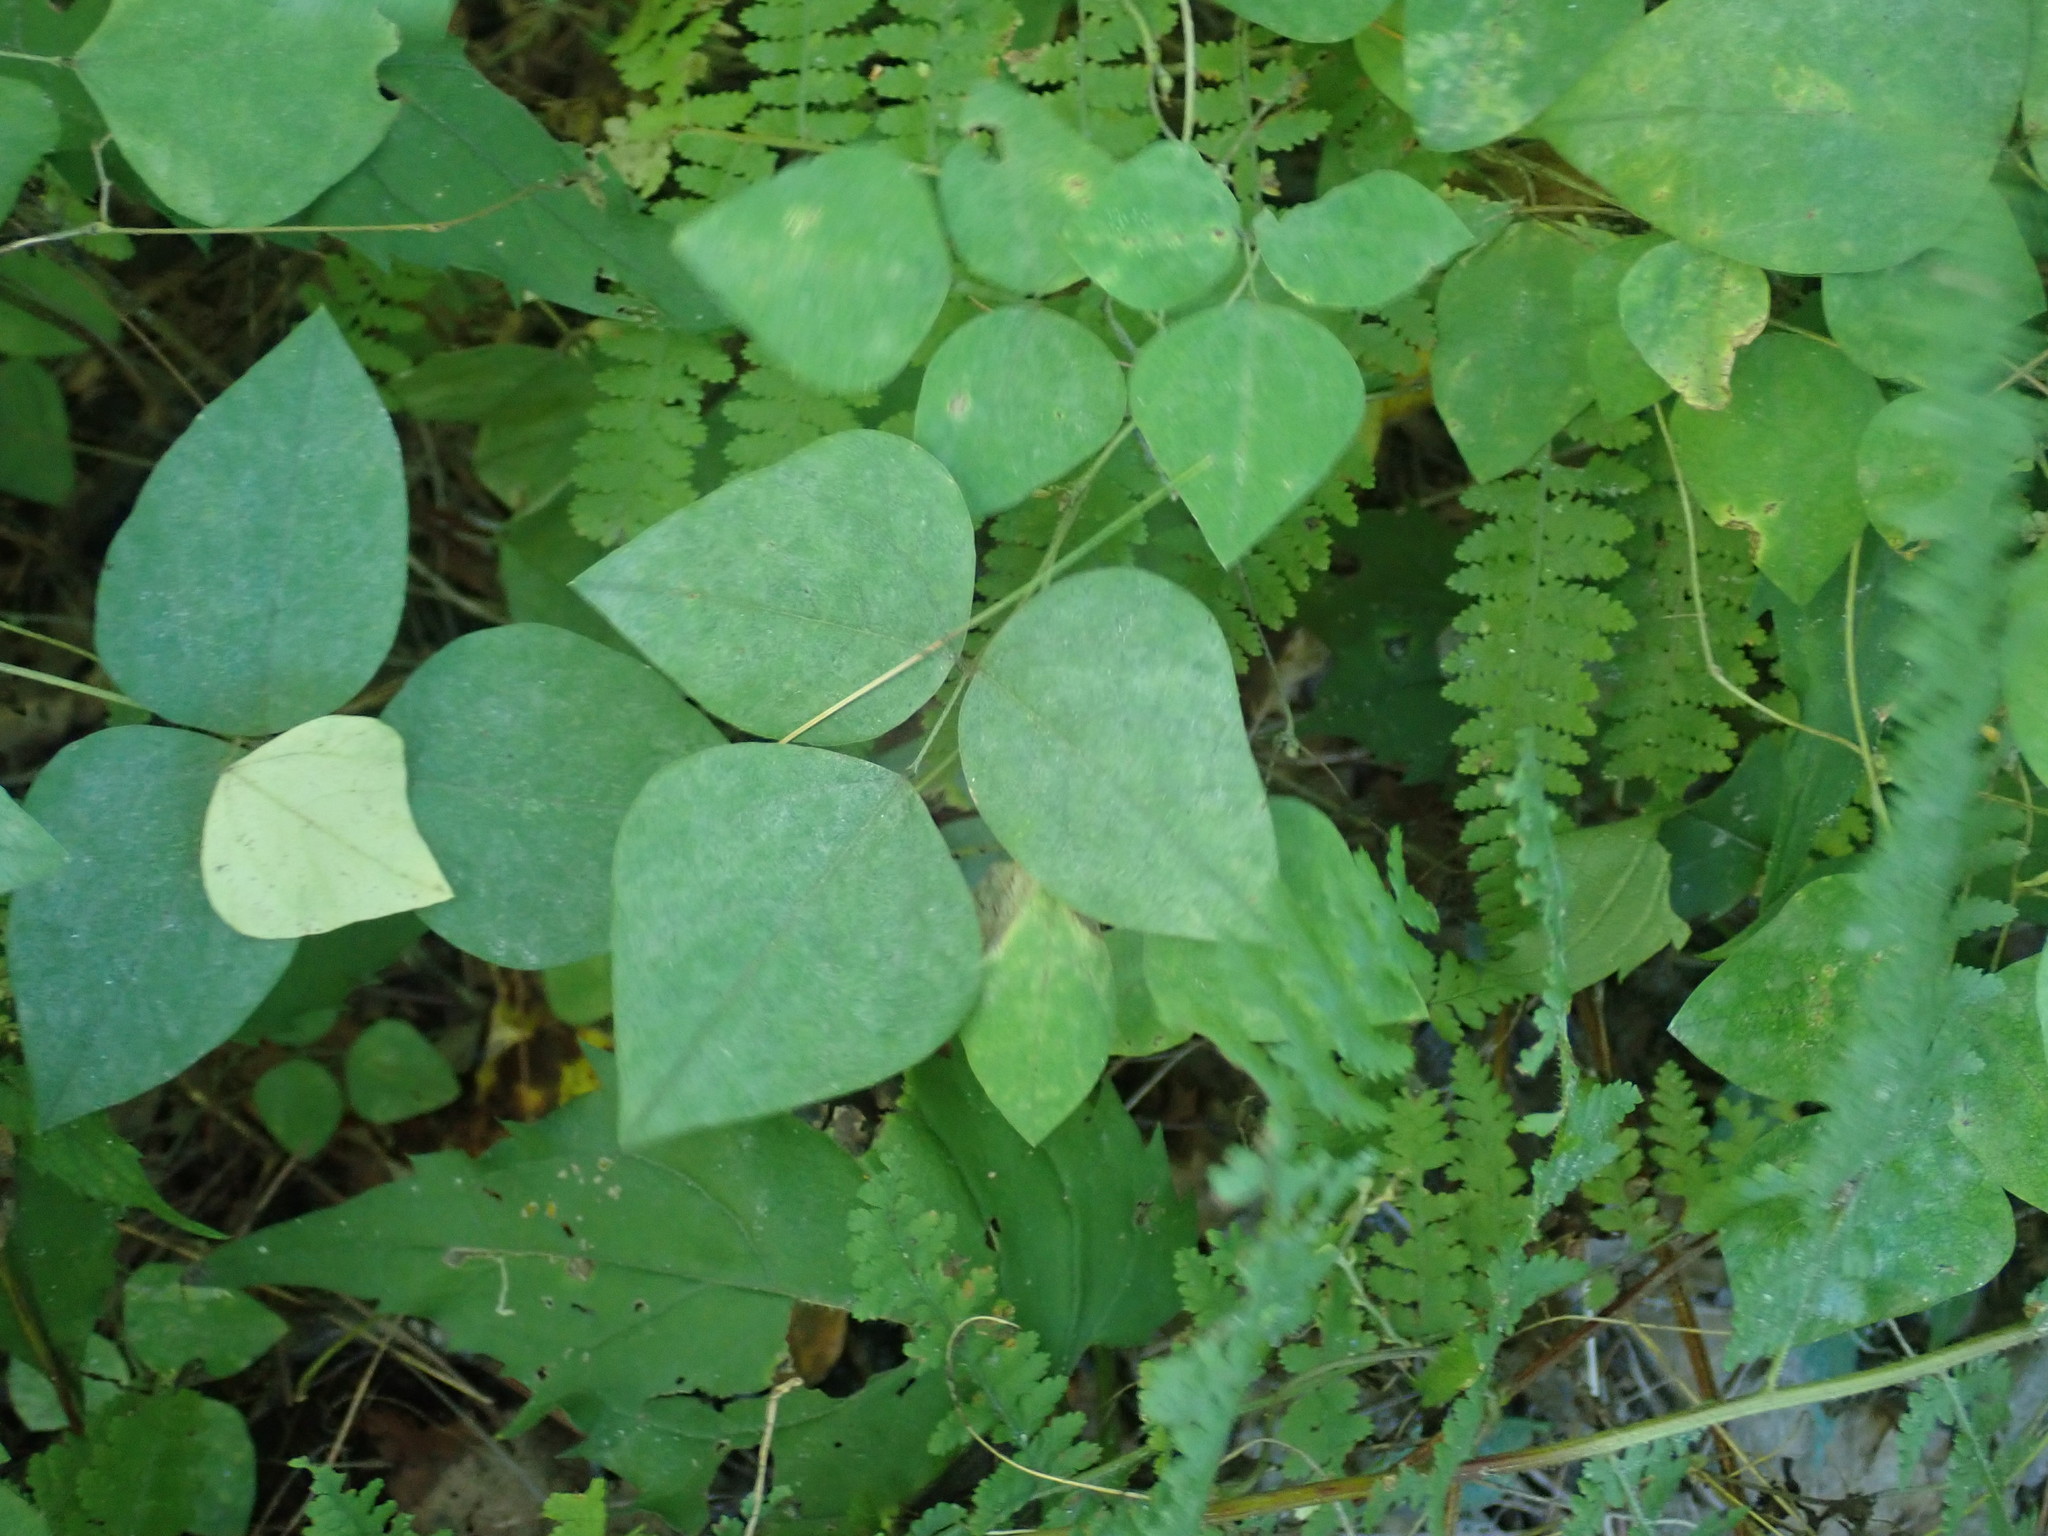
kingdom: Plantae
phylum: Tracheophyta
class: Magnoliopsida
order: Fabales
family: Fabaceae
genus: Amphicarpaea
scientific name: Amphicarpaea bracteata
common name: American hog peanut
